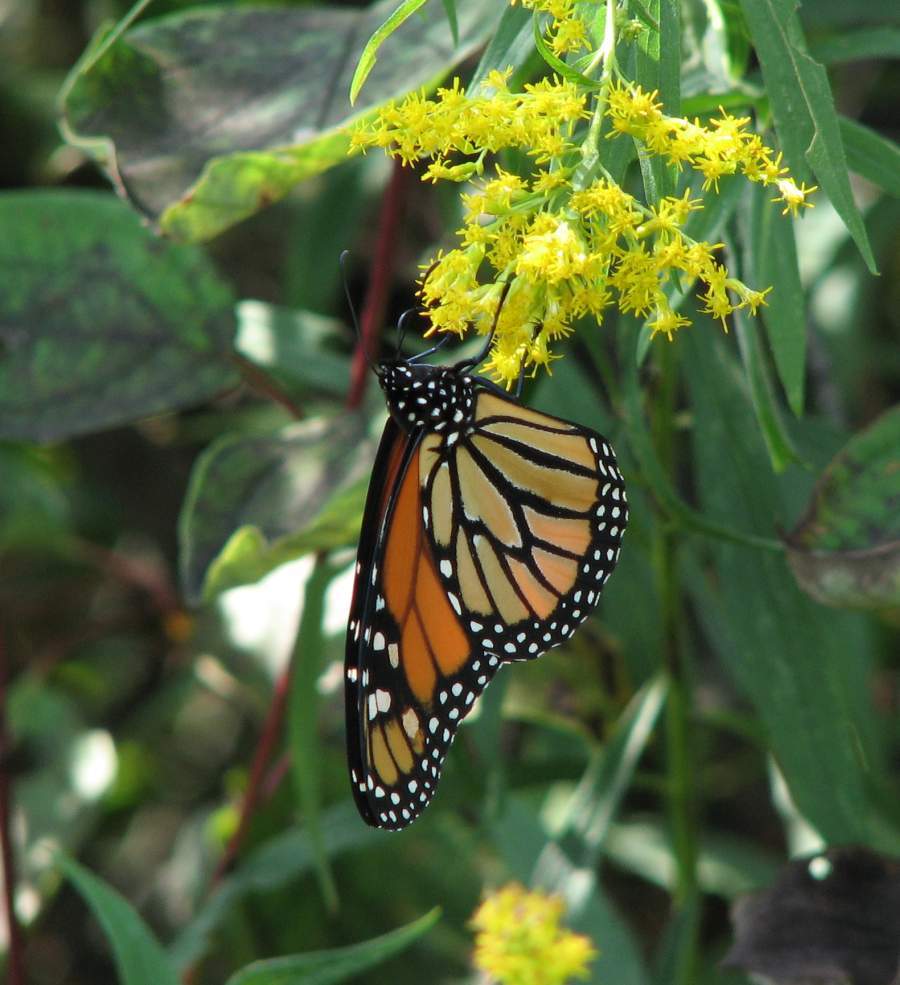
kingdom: Animalia
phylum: Arthropoda
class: Insecta
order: Lepidoptera
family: Nymphalidae
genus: Danaus
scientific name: Danaus plexippus
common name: Monarch
